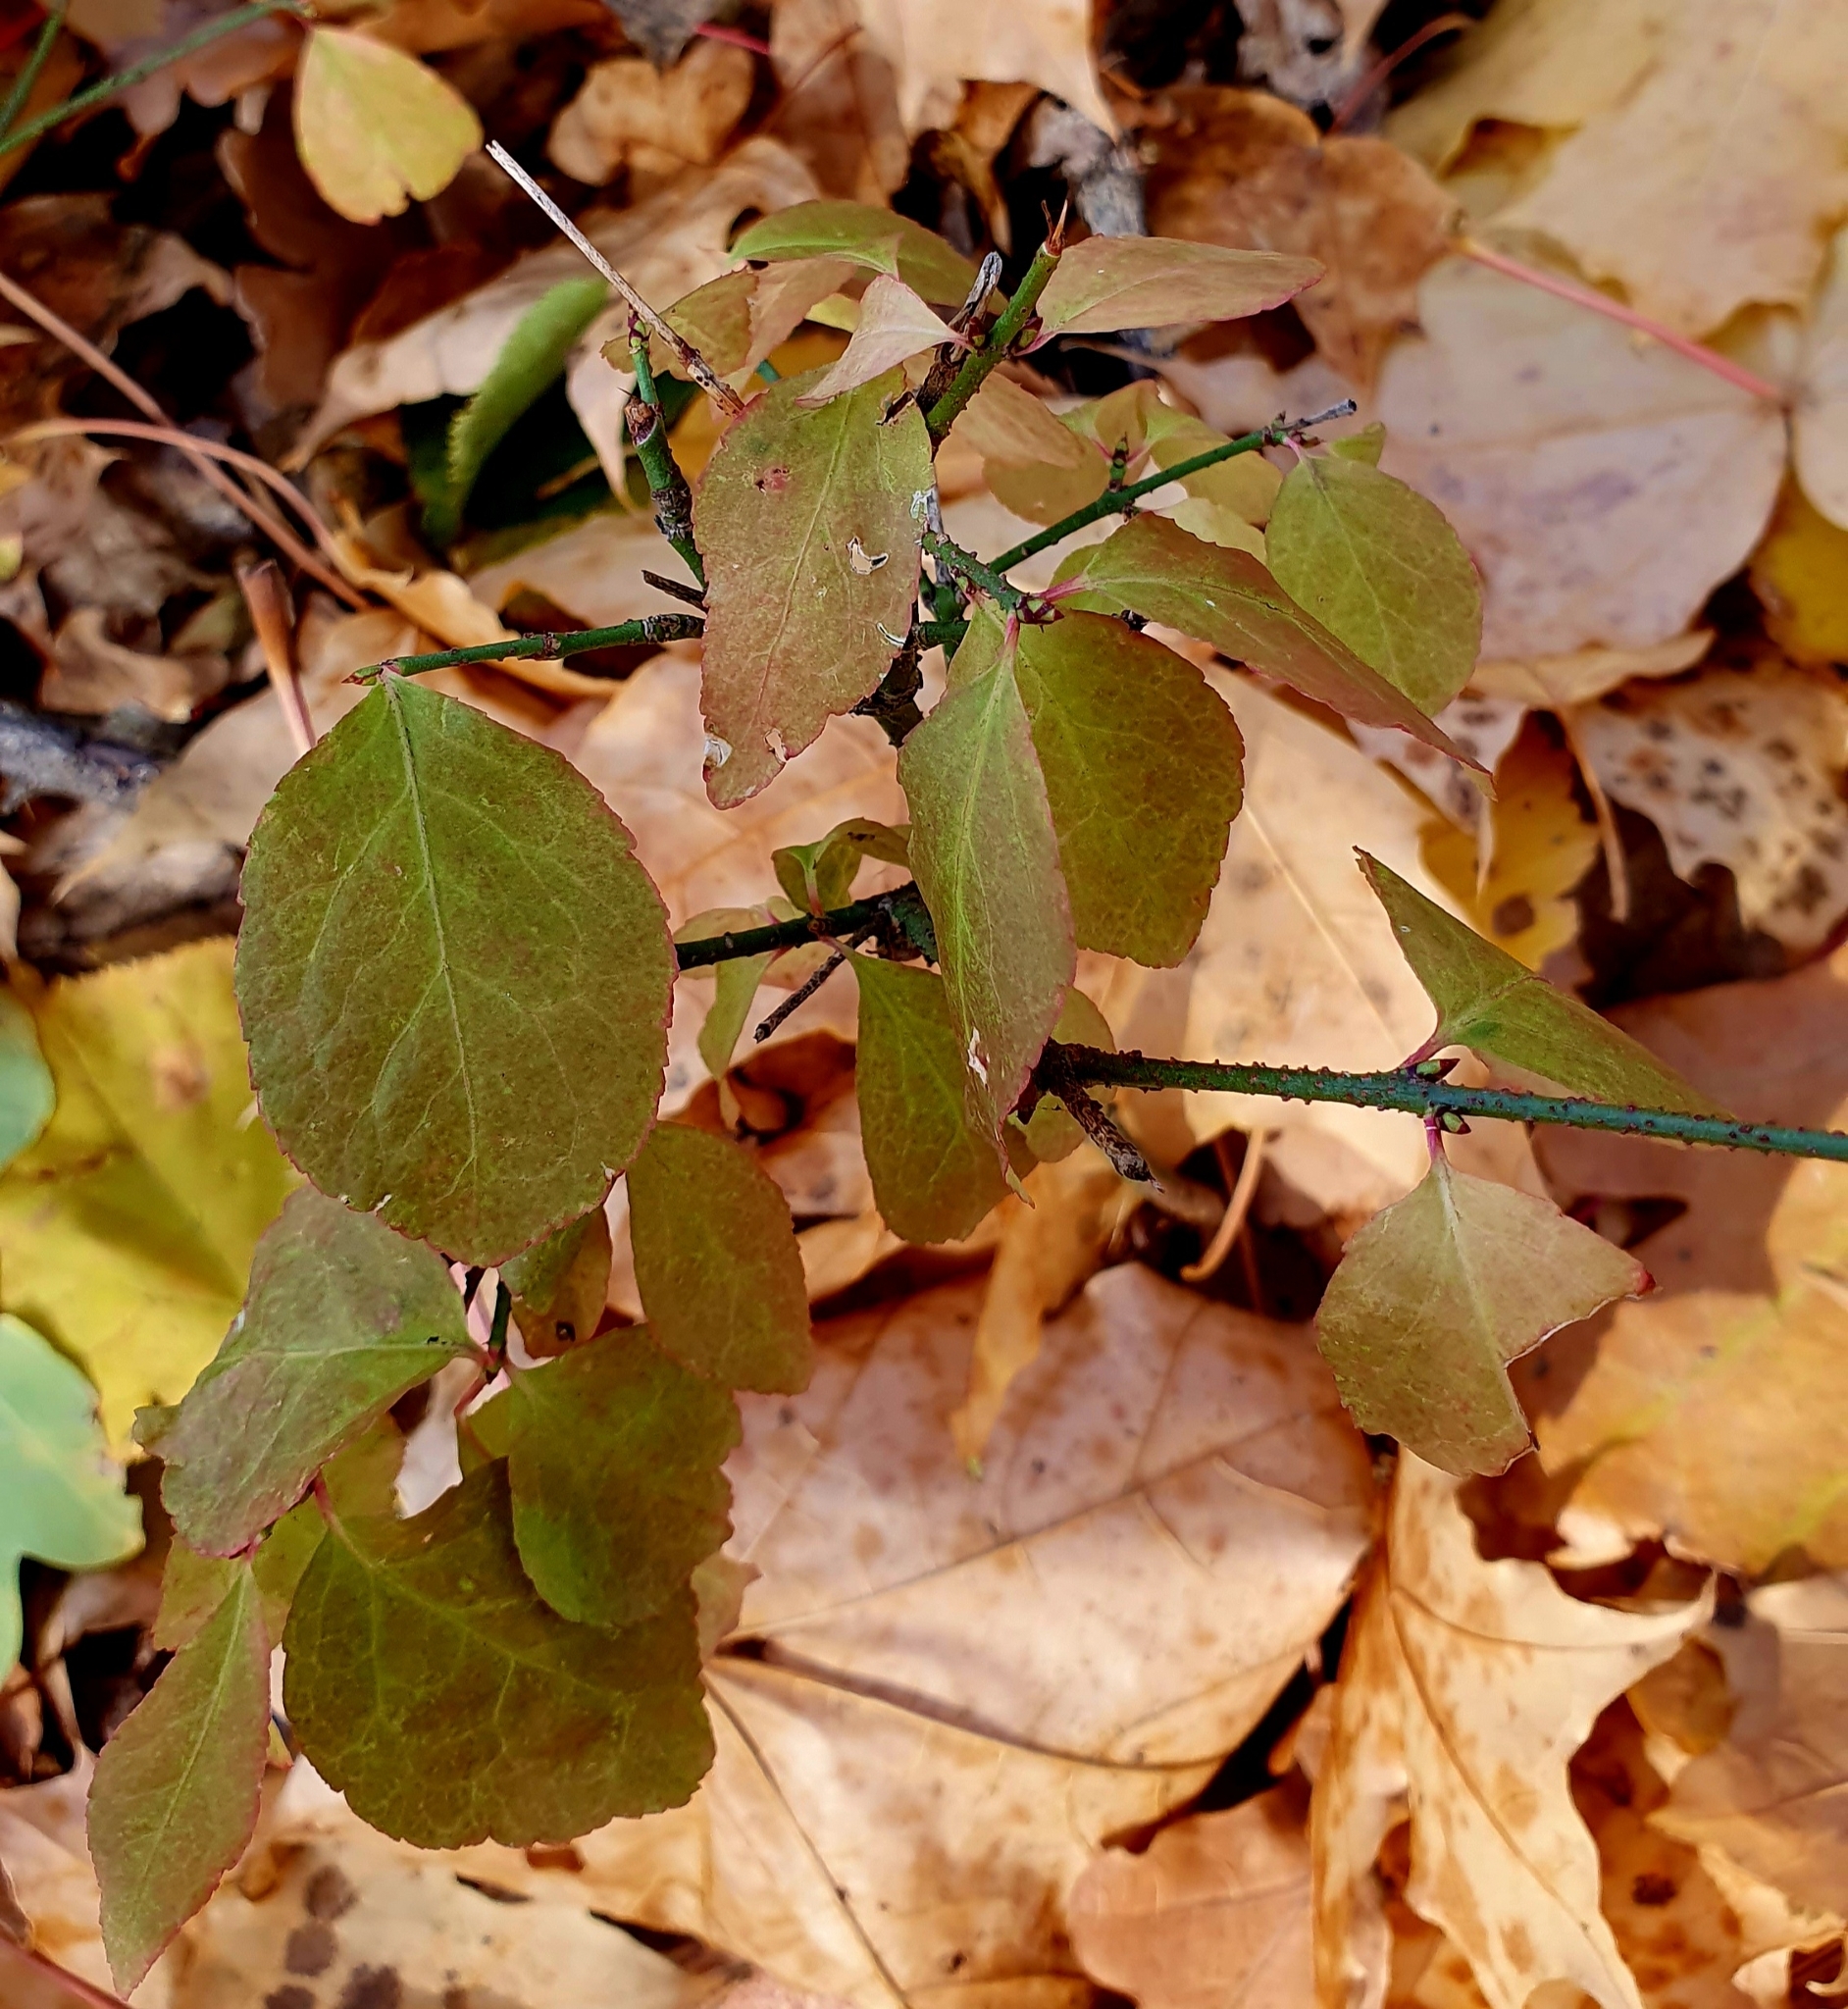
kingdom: Plantae
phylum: Tracheophyta
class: Magnoliopsida
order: Celastrales
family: Celastraceae
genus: Euonymus
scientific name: Euonymus verrucosus
